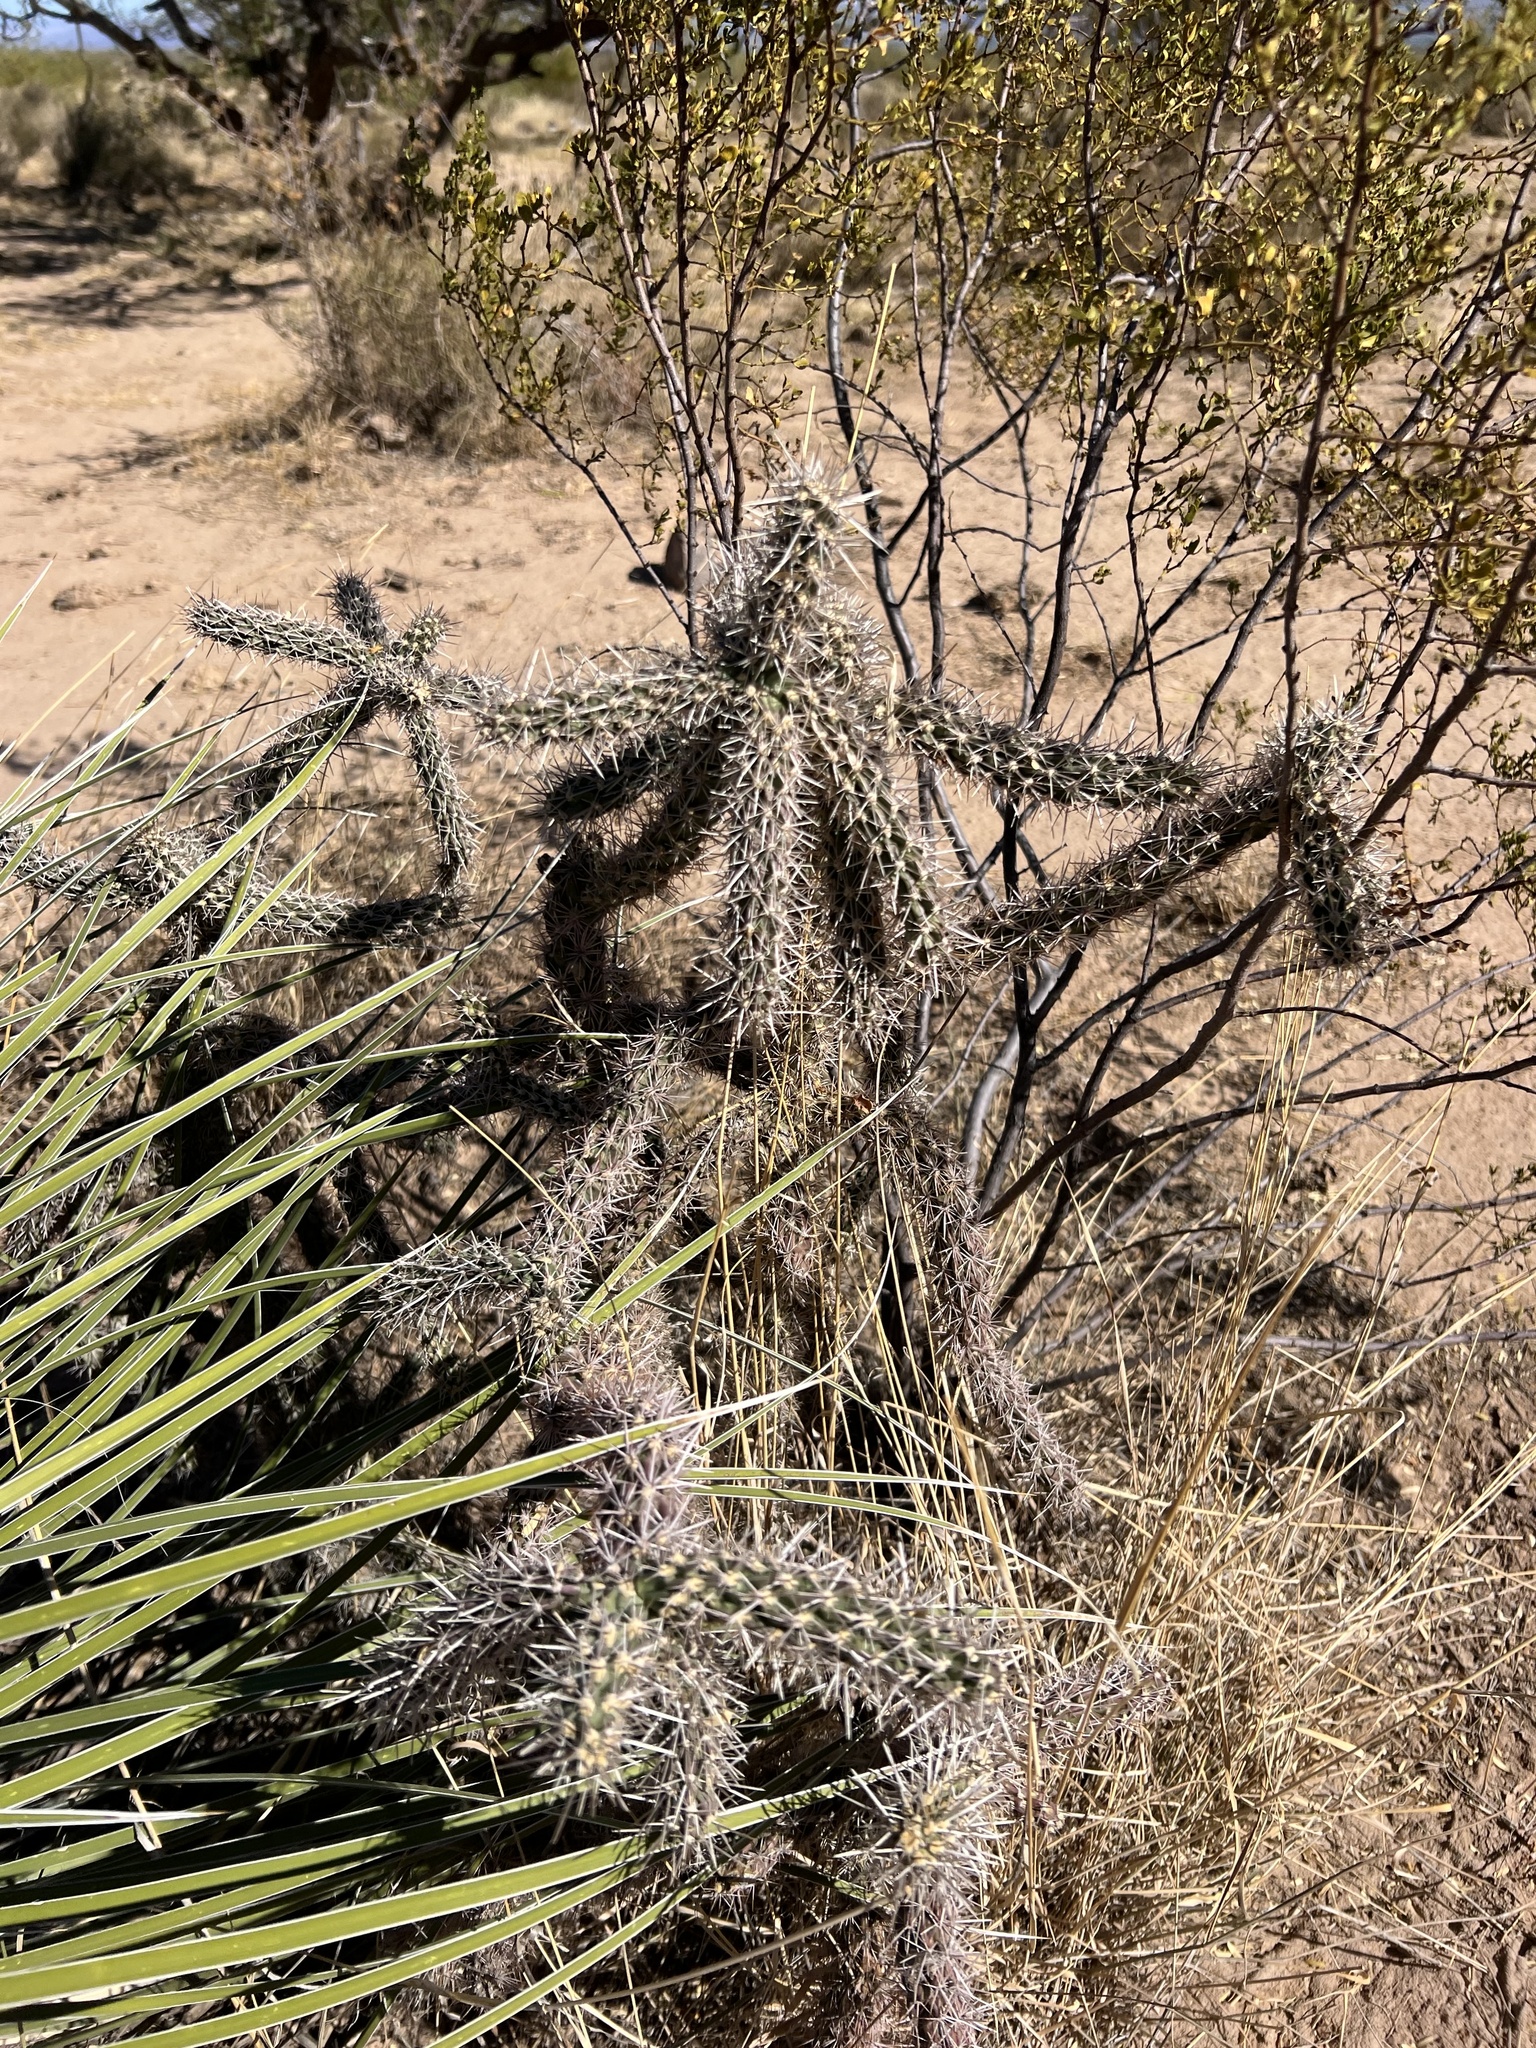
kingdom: Plantae
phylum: Tracheophyta
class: Magnoliopsida
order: Caryophyllales
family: Cactaceae
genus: Cylindropuntia
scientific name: Cylindropuntia imbricata
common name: Candelabrum cactus
